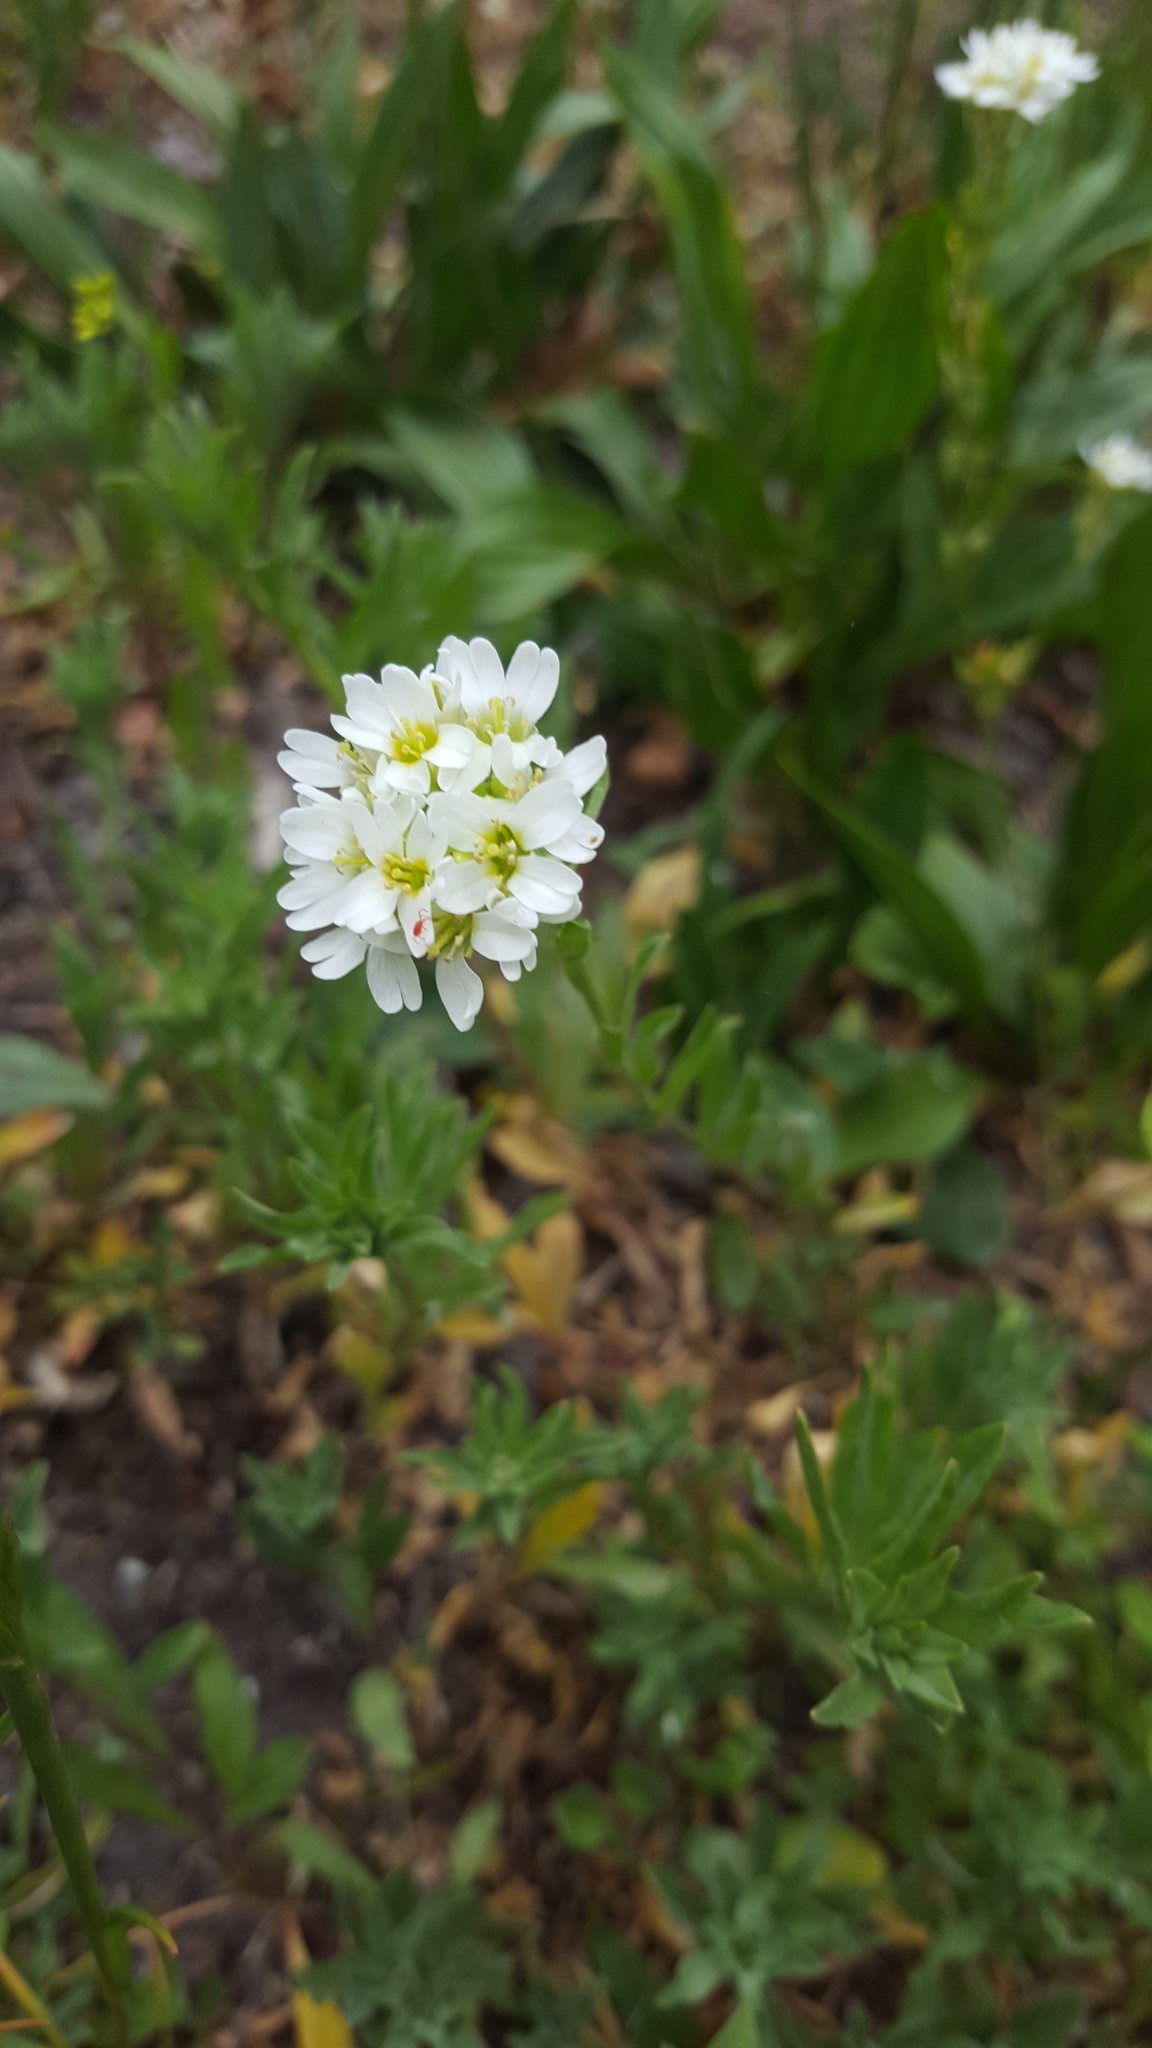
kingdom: Plantae
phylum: Tracheophyta
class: Magnoliopsida
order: Brassicales
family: Brassicaceae
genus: Berteroa
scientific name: Berteroa incana
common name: Hoary alison
